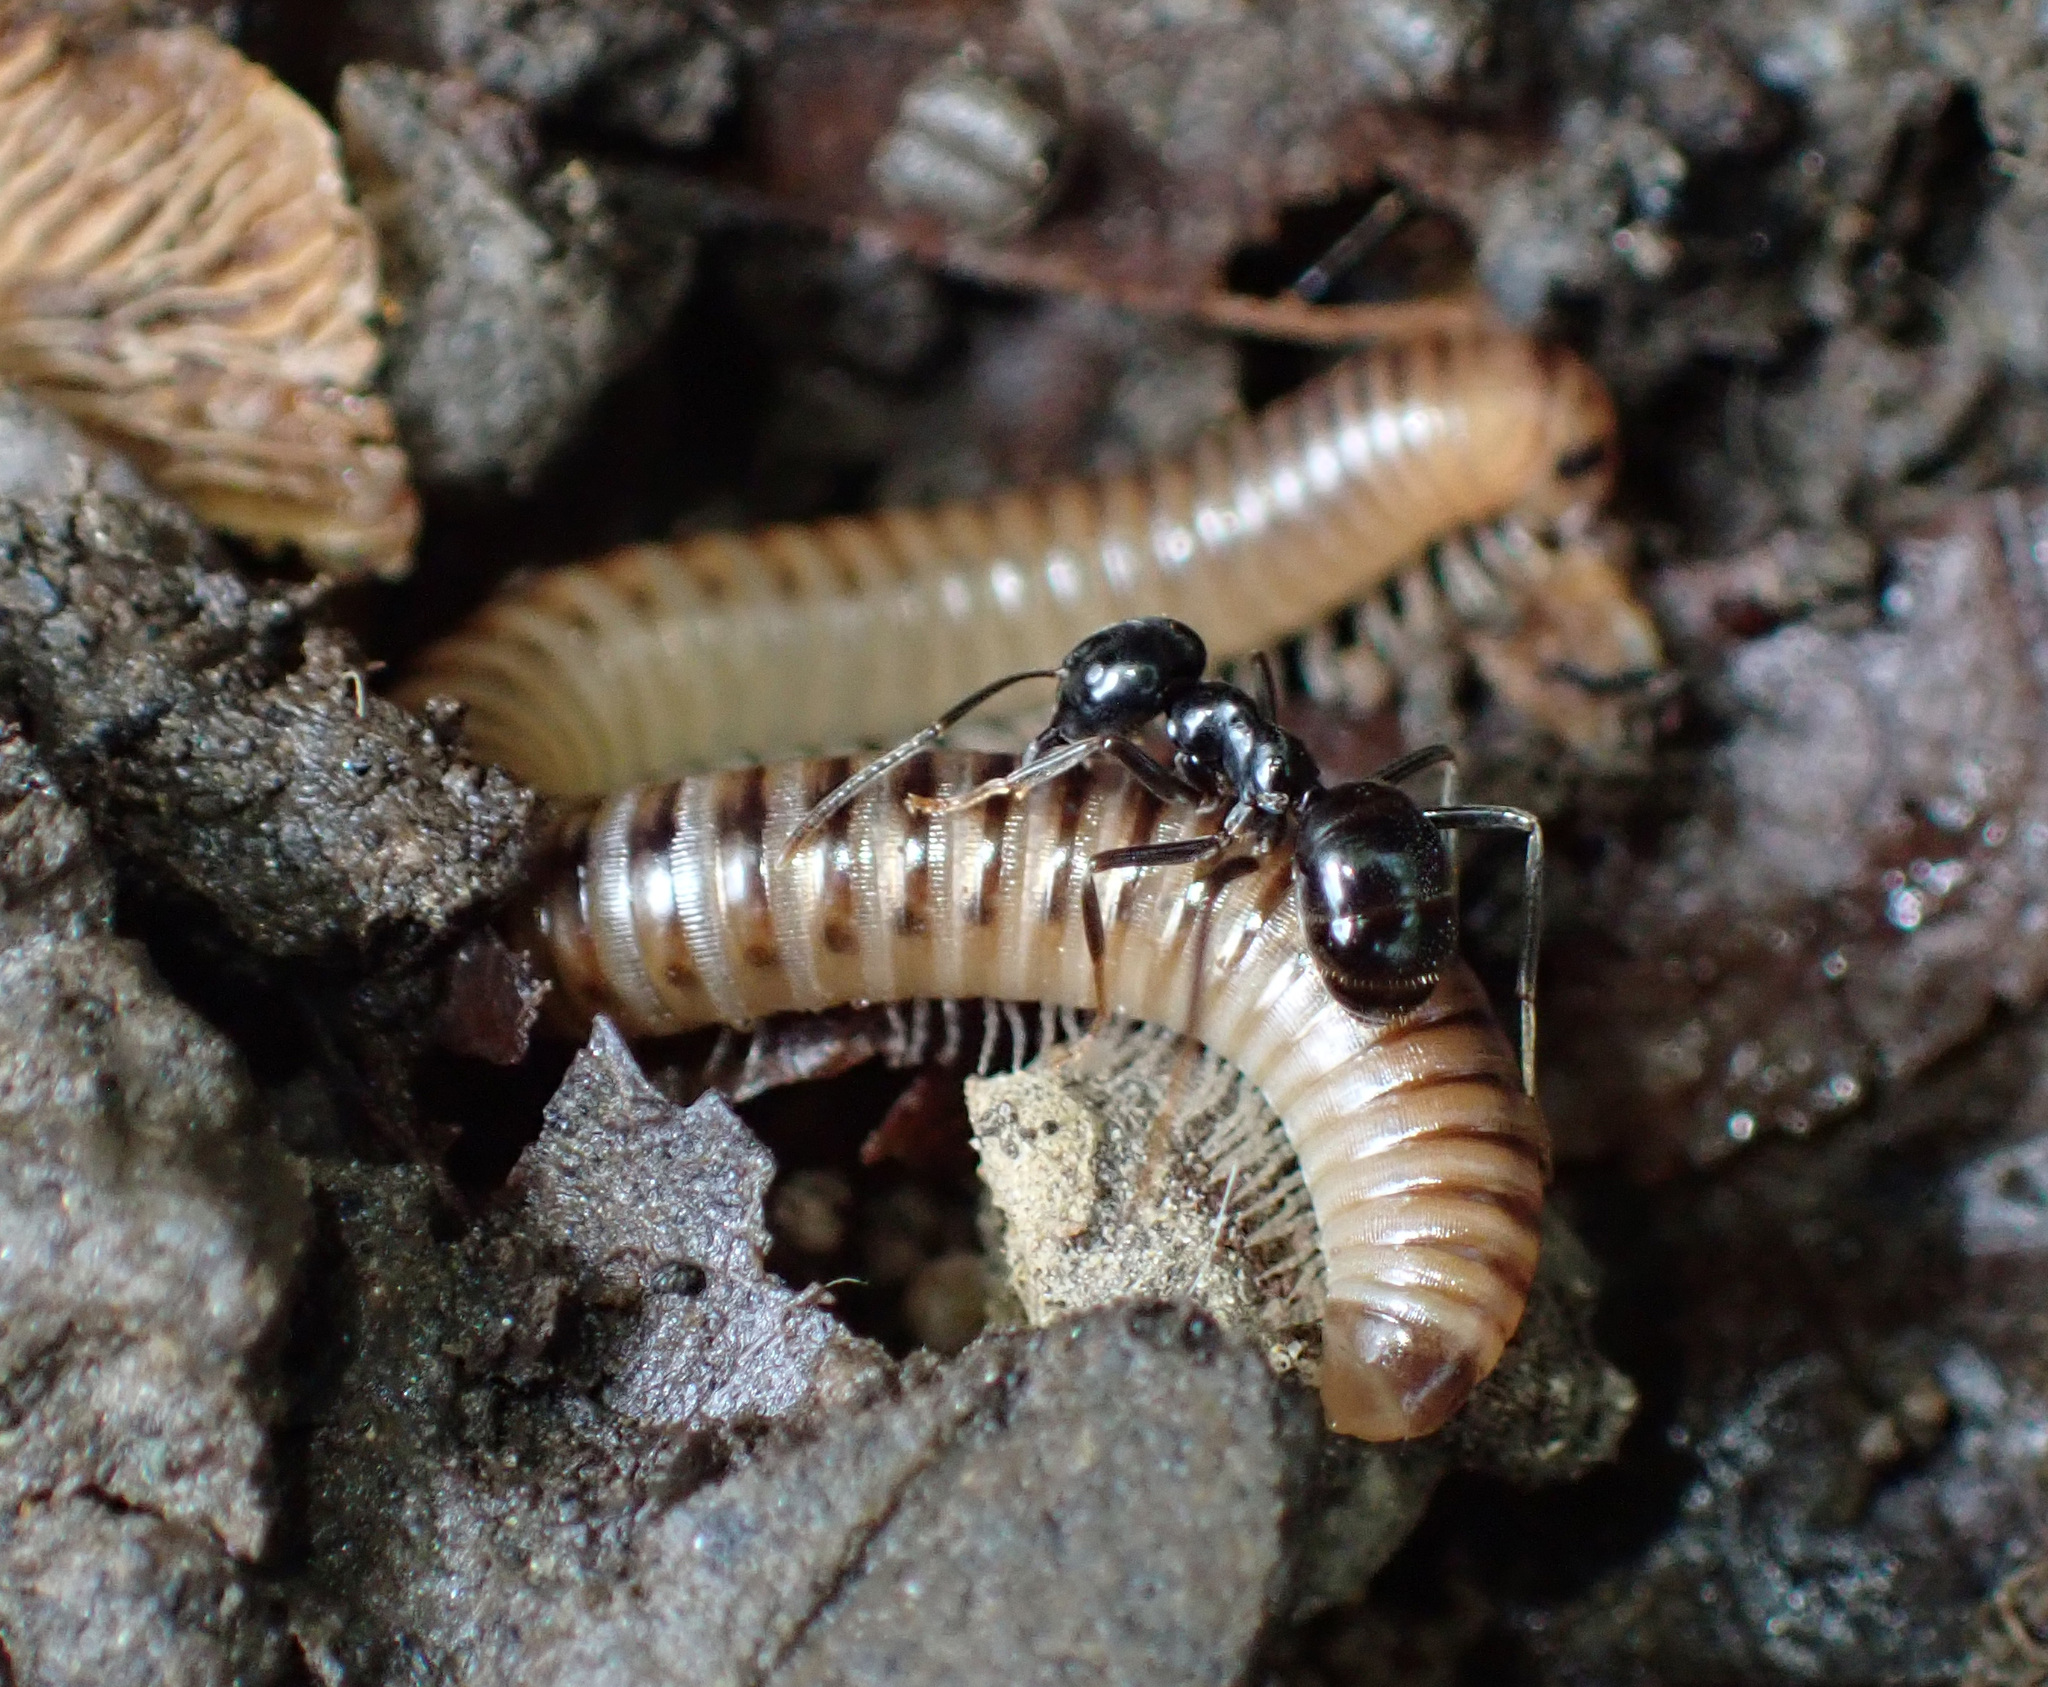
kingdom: Animalia
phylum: Arthropoda
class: Insecta
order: Hymenoptera
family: Formicidae
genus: Lasius
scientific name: Lasius fuliginosus
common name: Jet ant
